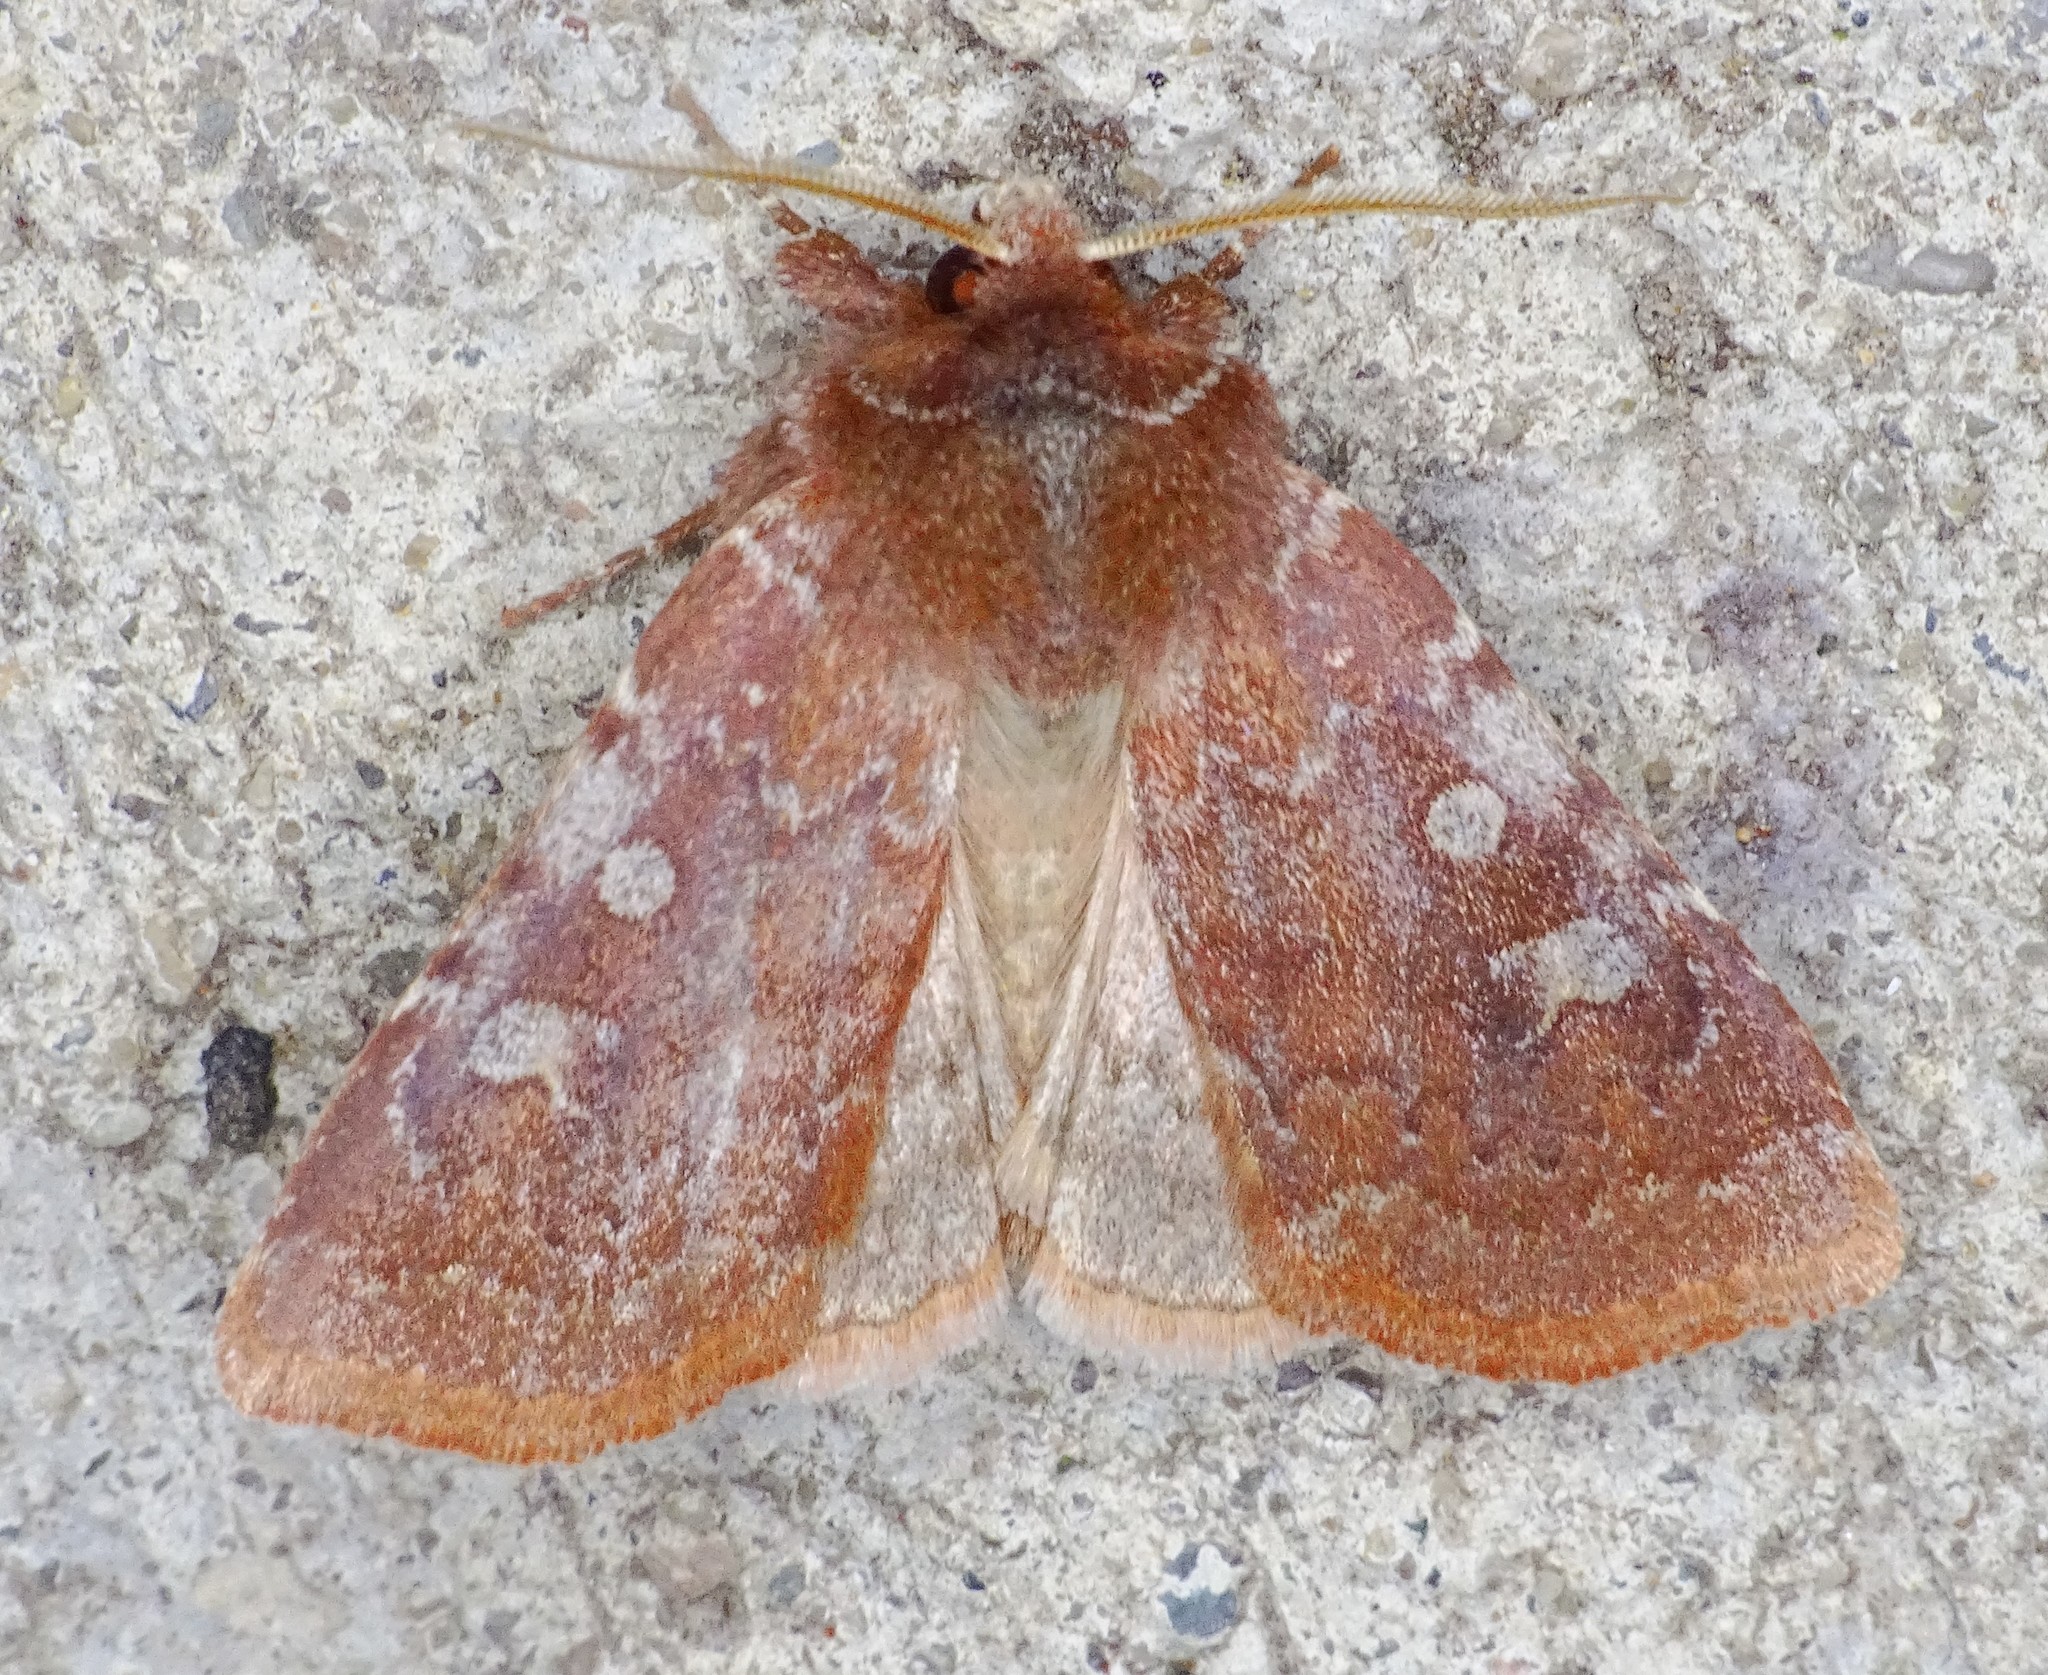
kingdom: Animalia
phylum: Arthropoda
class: Insecta
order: Lepidoptera
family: Noctuidae
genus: Cerastis
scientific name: Cerastis tenebrifera
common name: Reddish speckled dart
